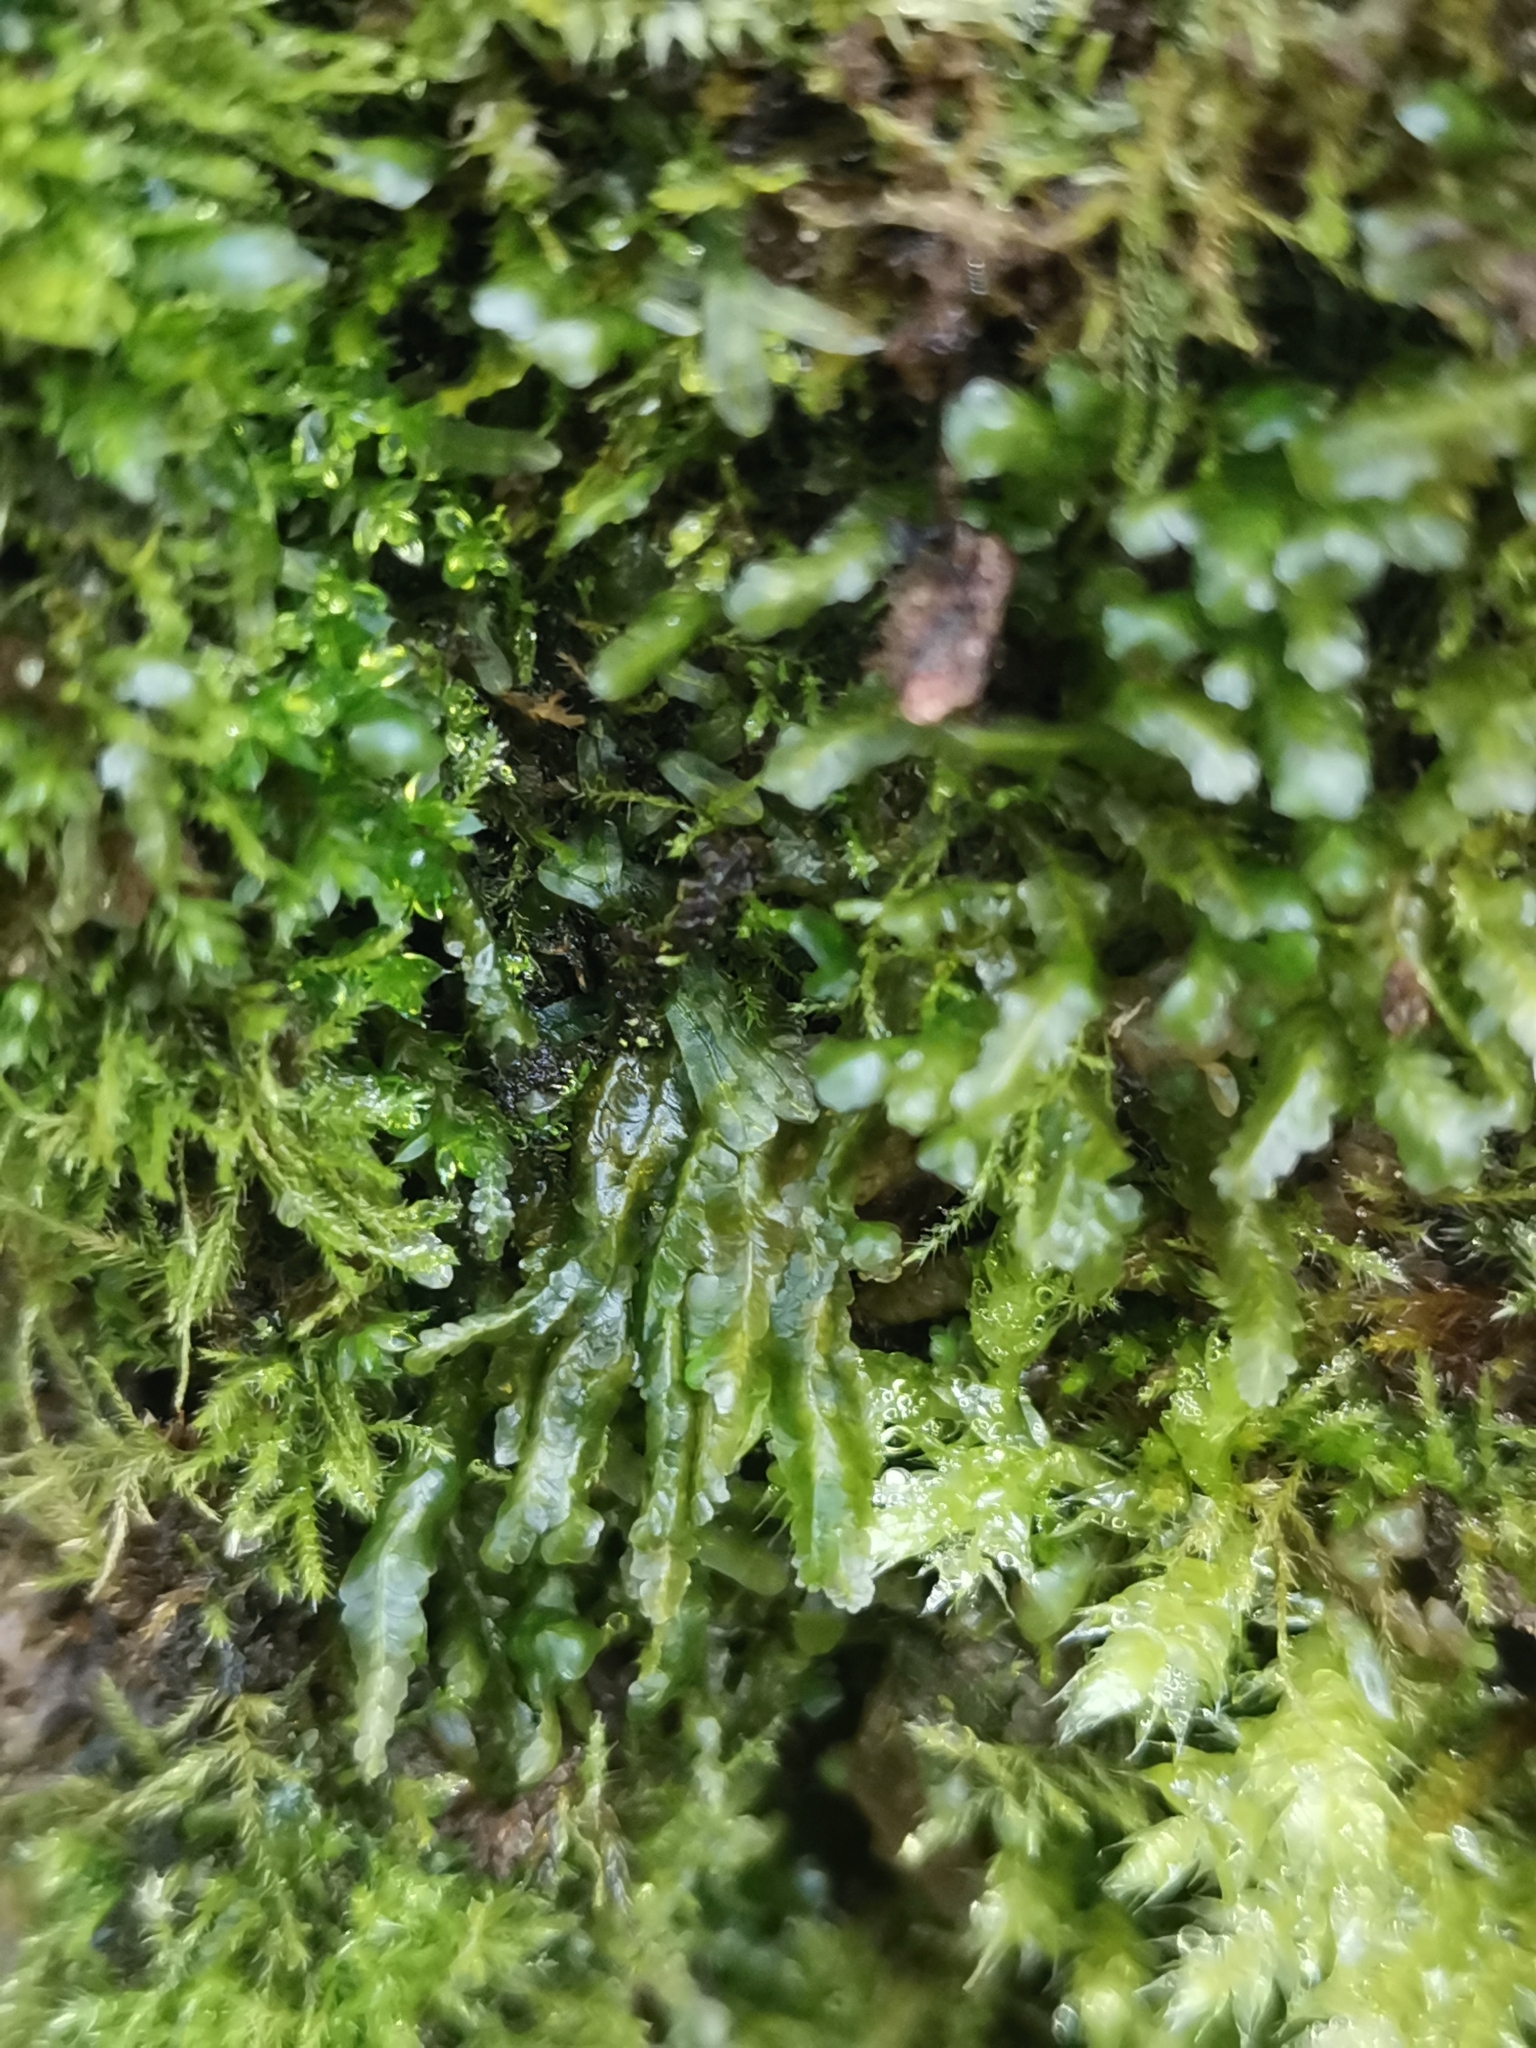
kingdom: Plantae
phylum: Bryophyta
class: Bryopsida
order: Hypnales
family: Neckeraceae
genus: Homalia
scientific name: Homalia trichomanoides
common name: Lime homalia moss
